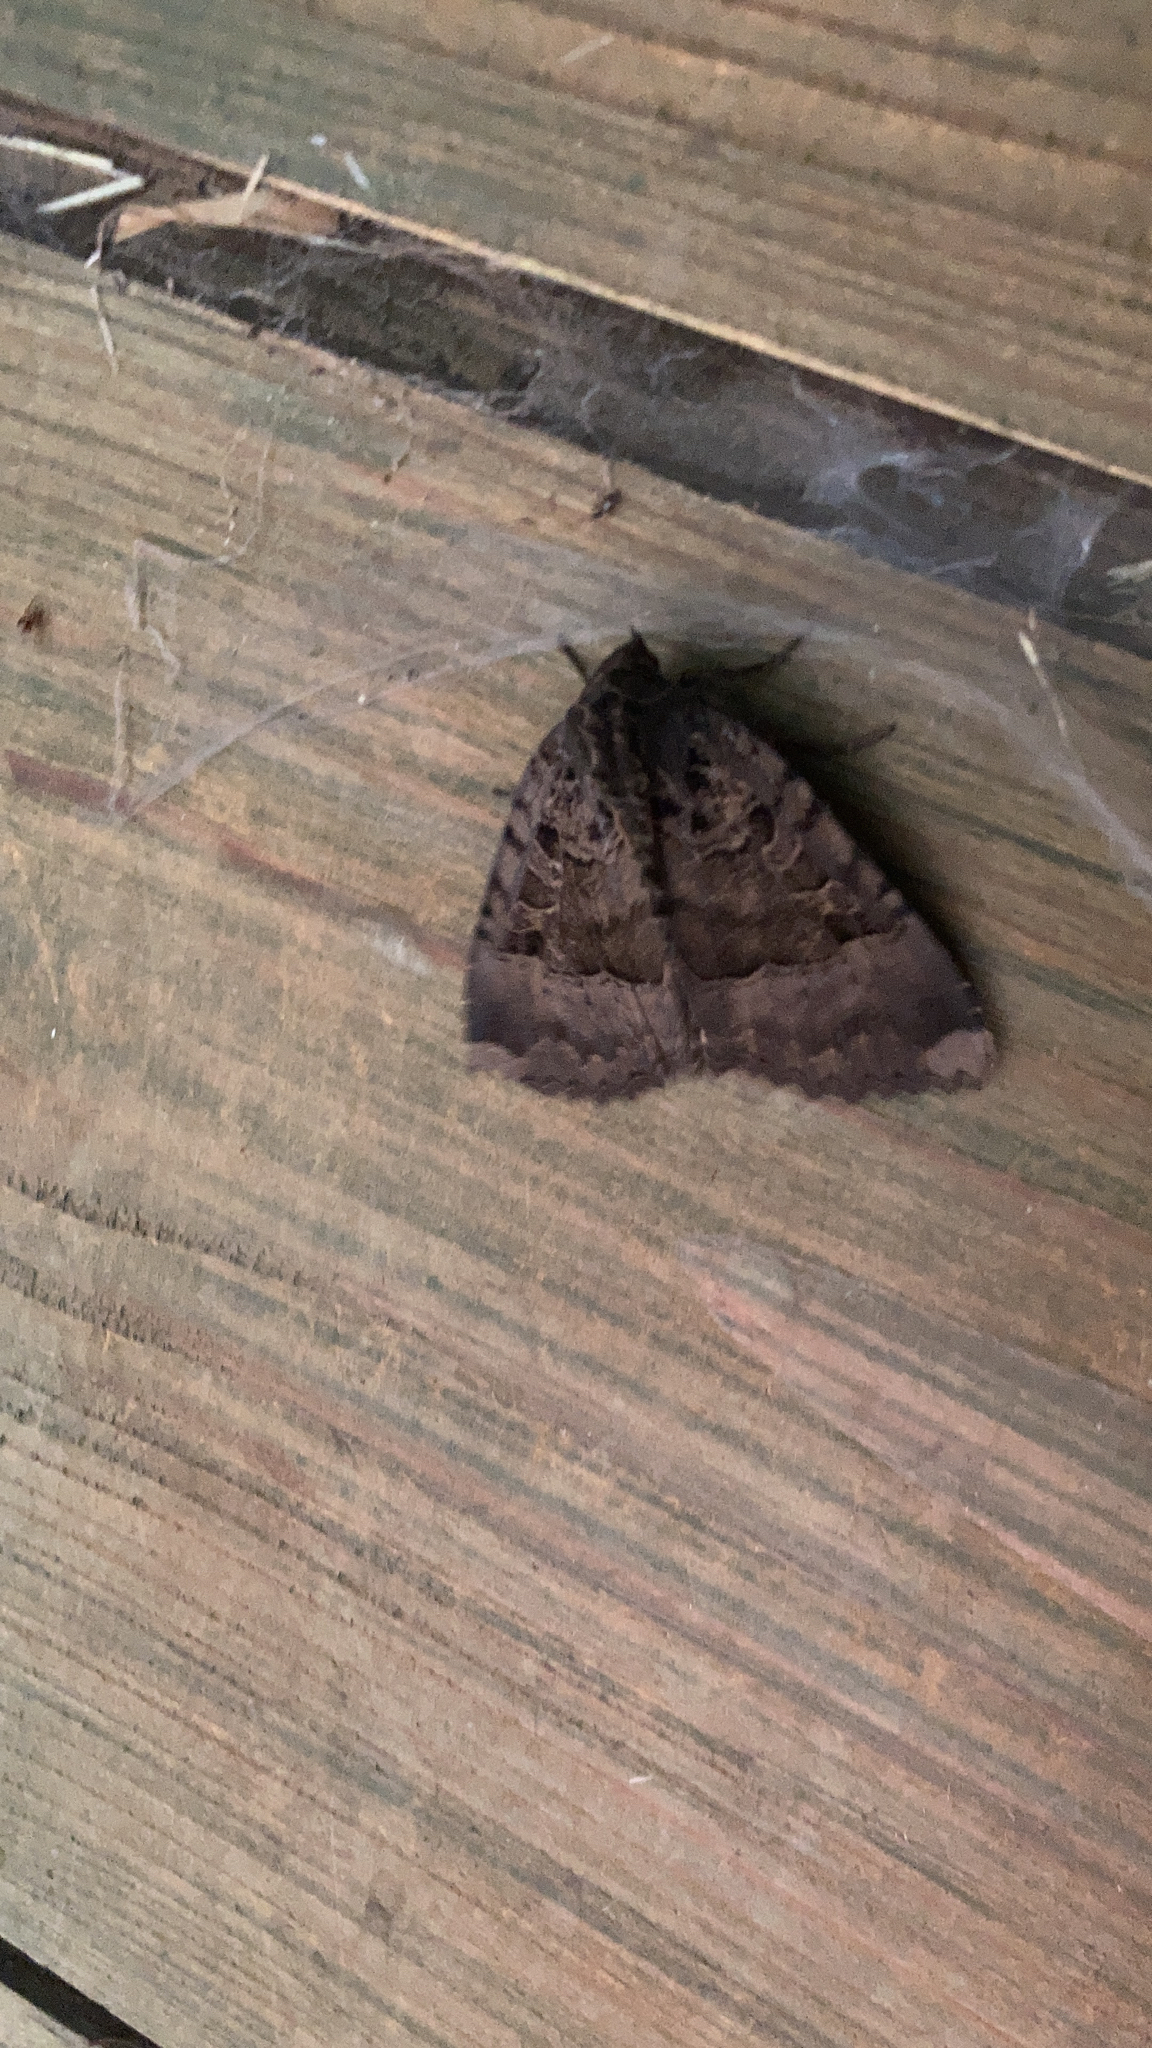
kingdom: Animalia
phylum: Arthropoda
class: Insecta
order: Lepidoptera
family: Noctuidae
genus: Mormo
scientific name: Mormo maura
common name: Old lady
